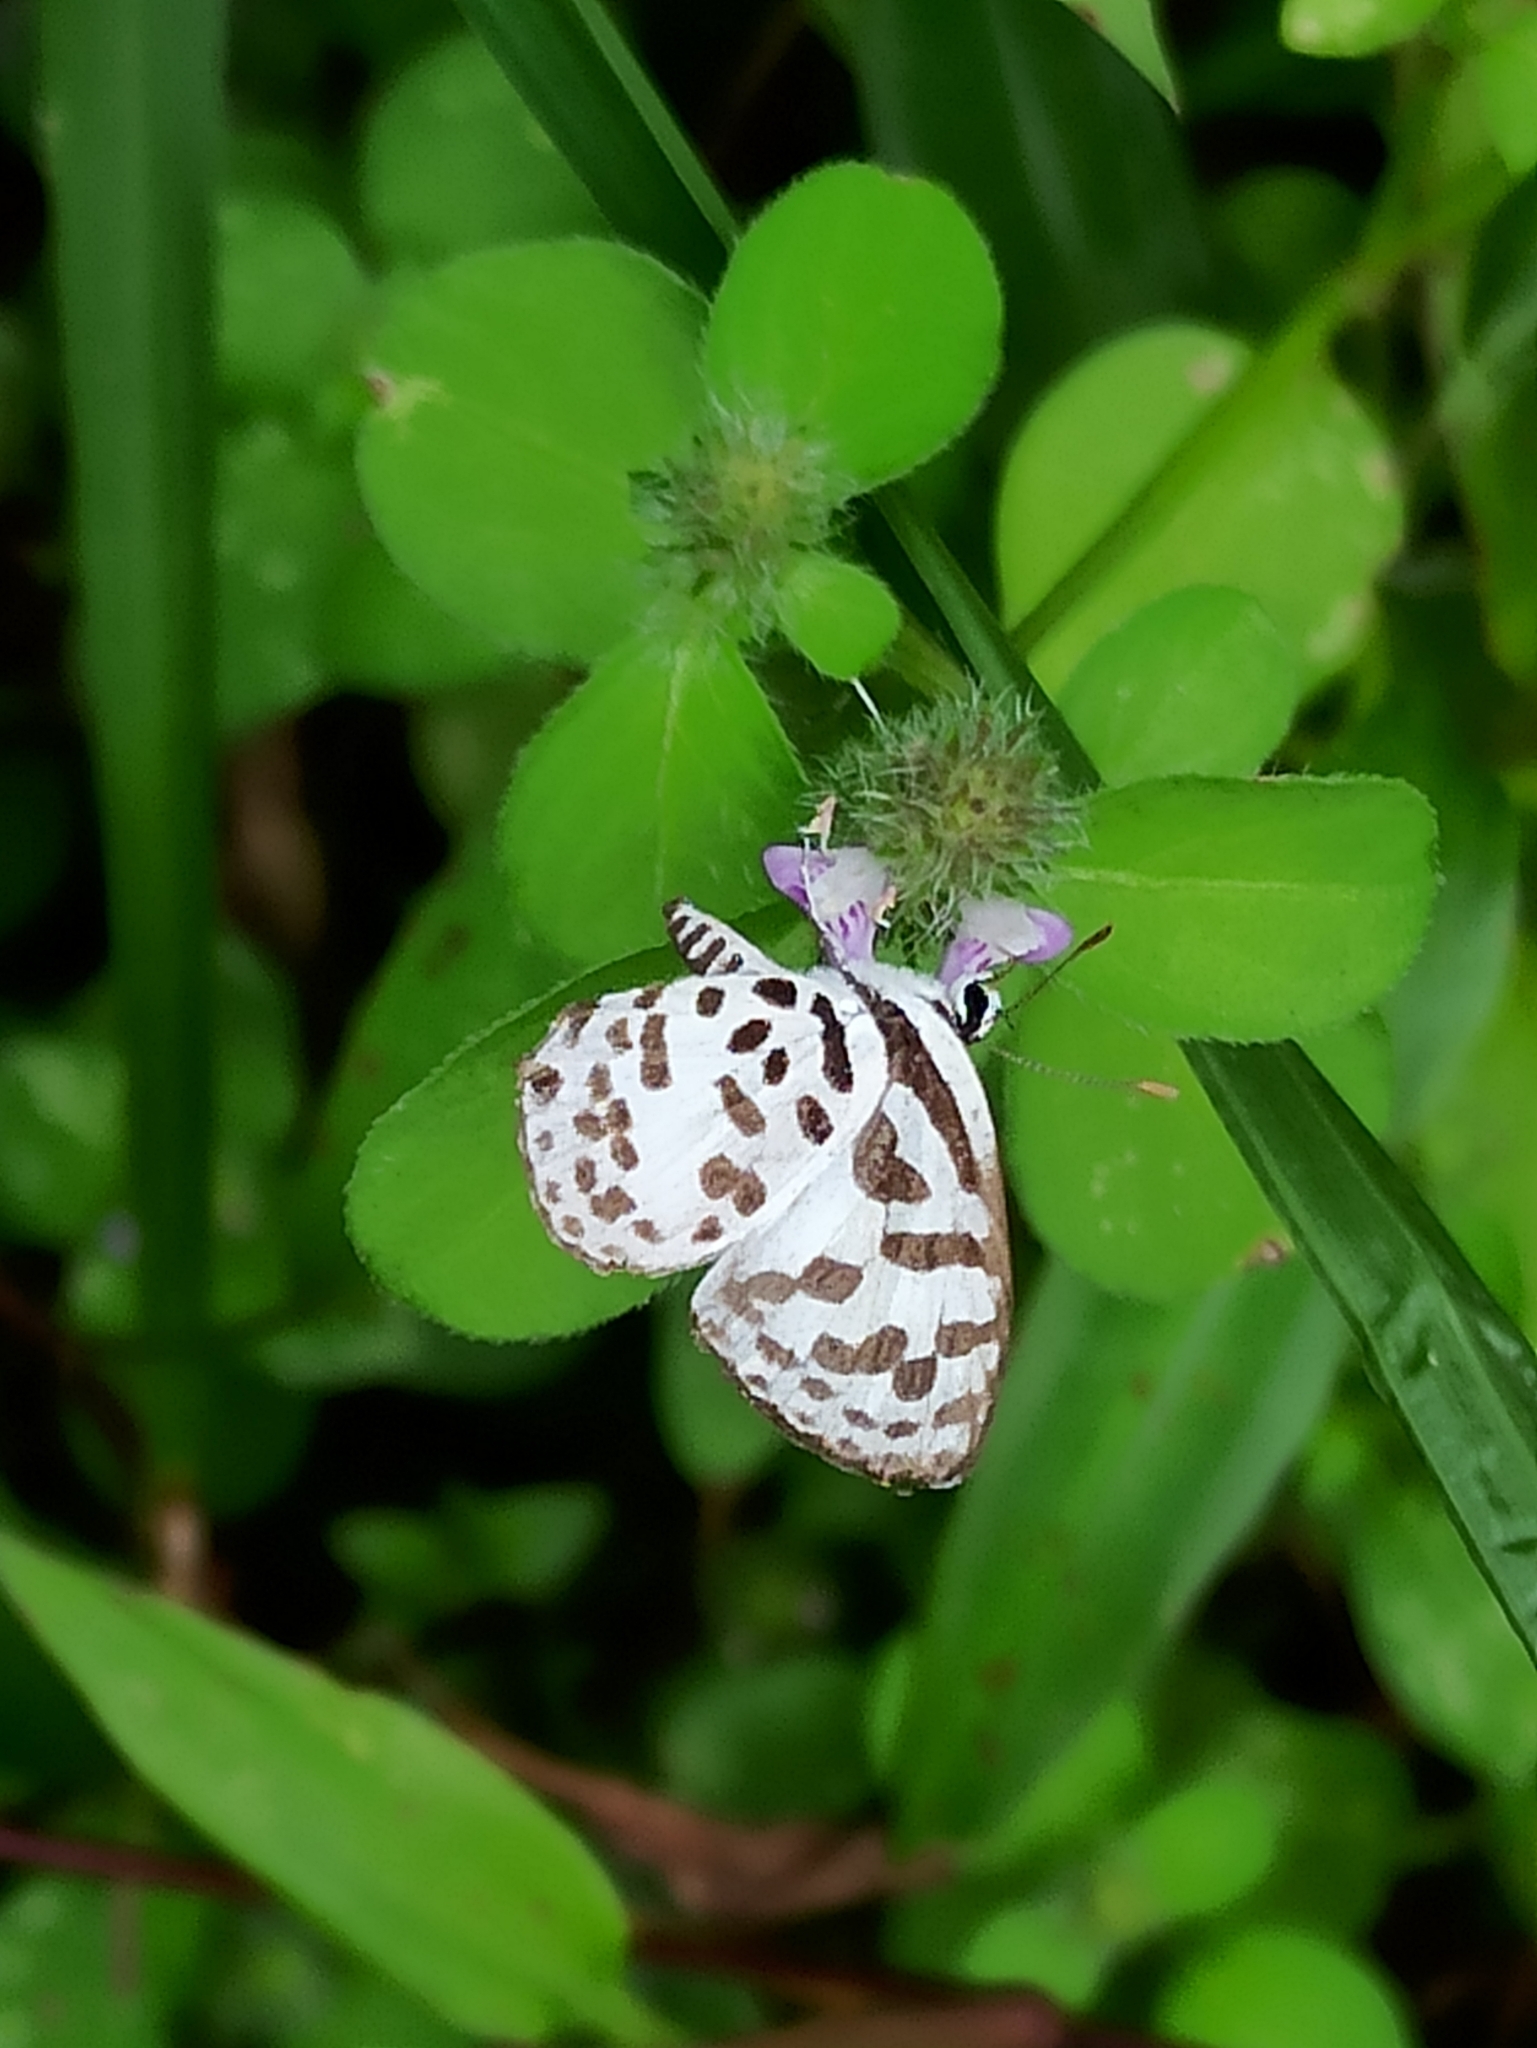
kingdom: Animalia
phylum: Arthropoda
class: Insecta
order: Lepidoptera
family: Lycaenidae
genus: Castalius
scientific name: Castalius rosimon
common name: Common pierrot
